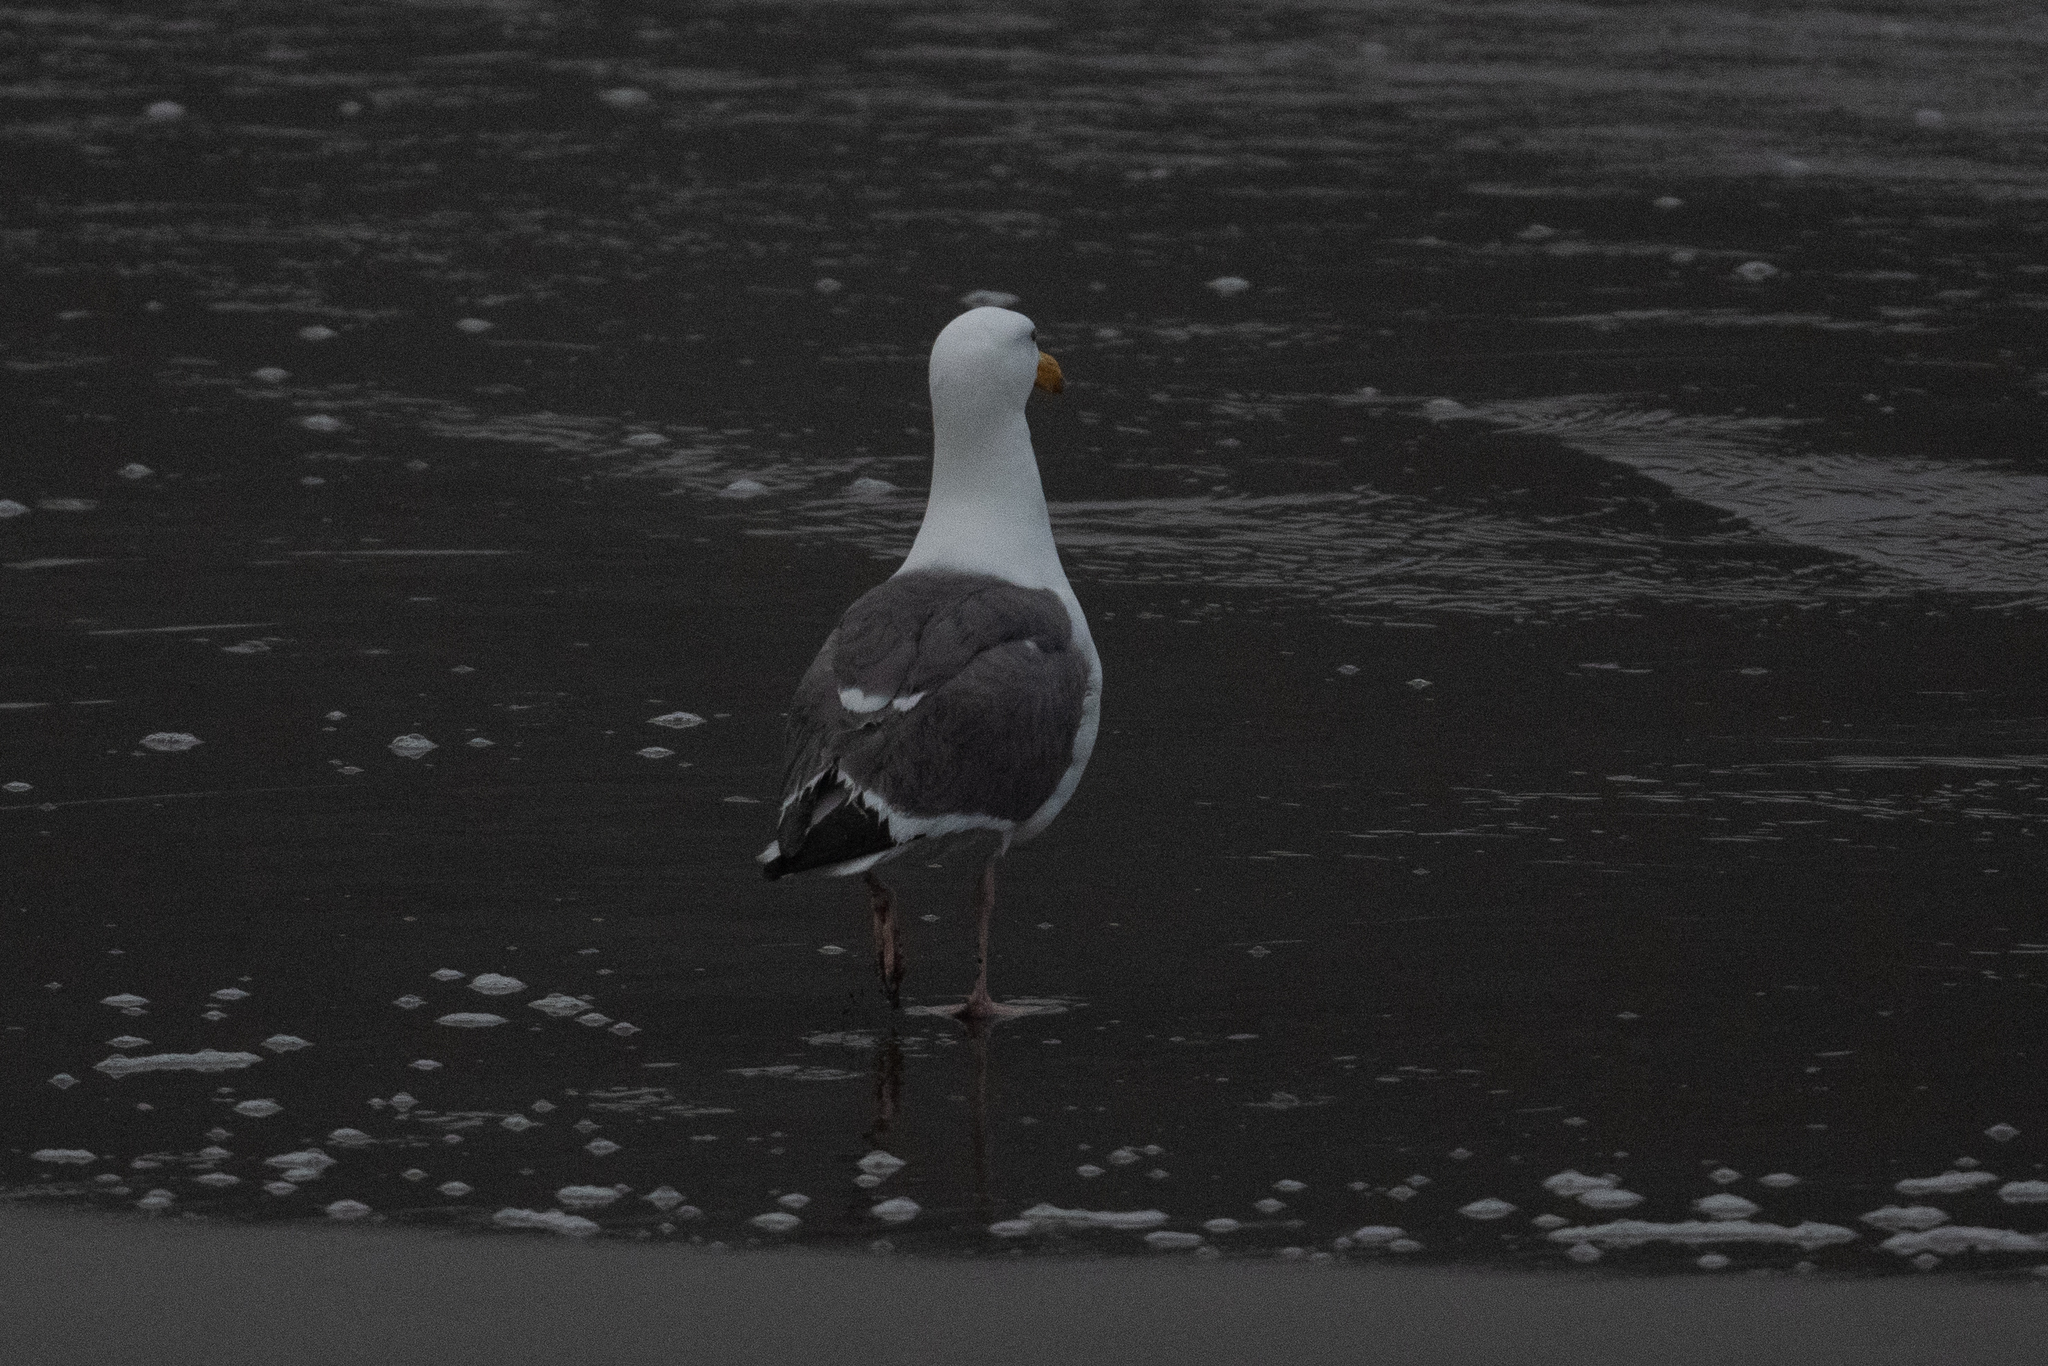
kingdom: Animalia
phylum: Chordata
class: Aves
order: Charadriiformes
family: Laridae
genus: Larus
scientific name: Larus occidentalis
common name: Western gull
